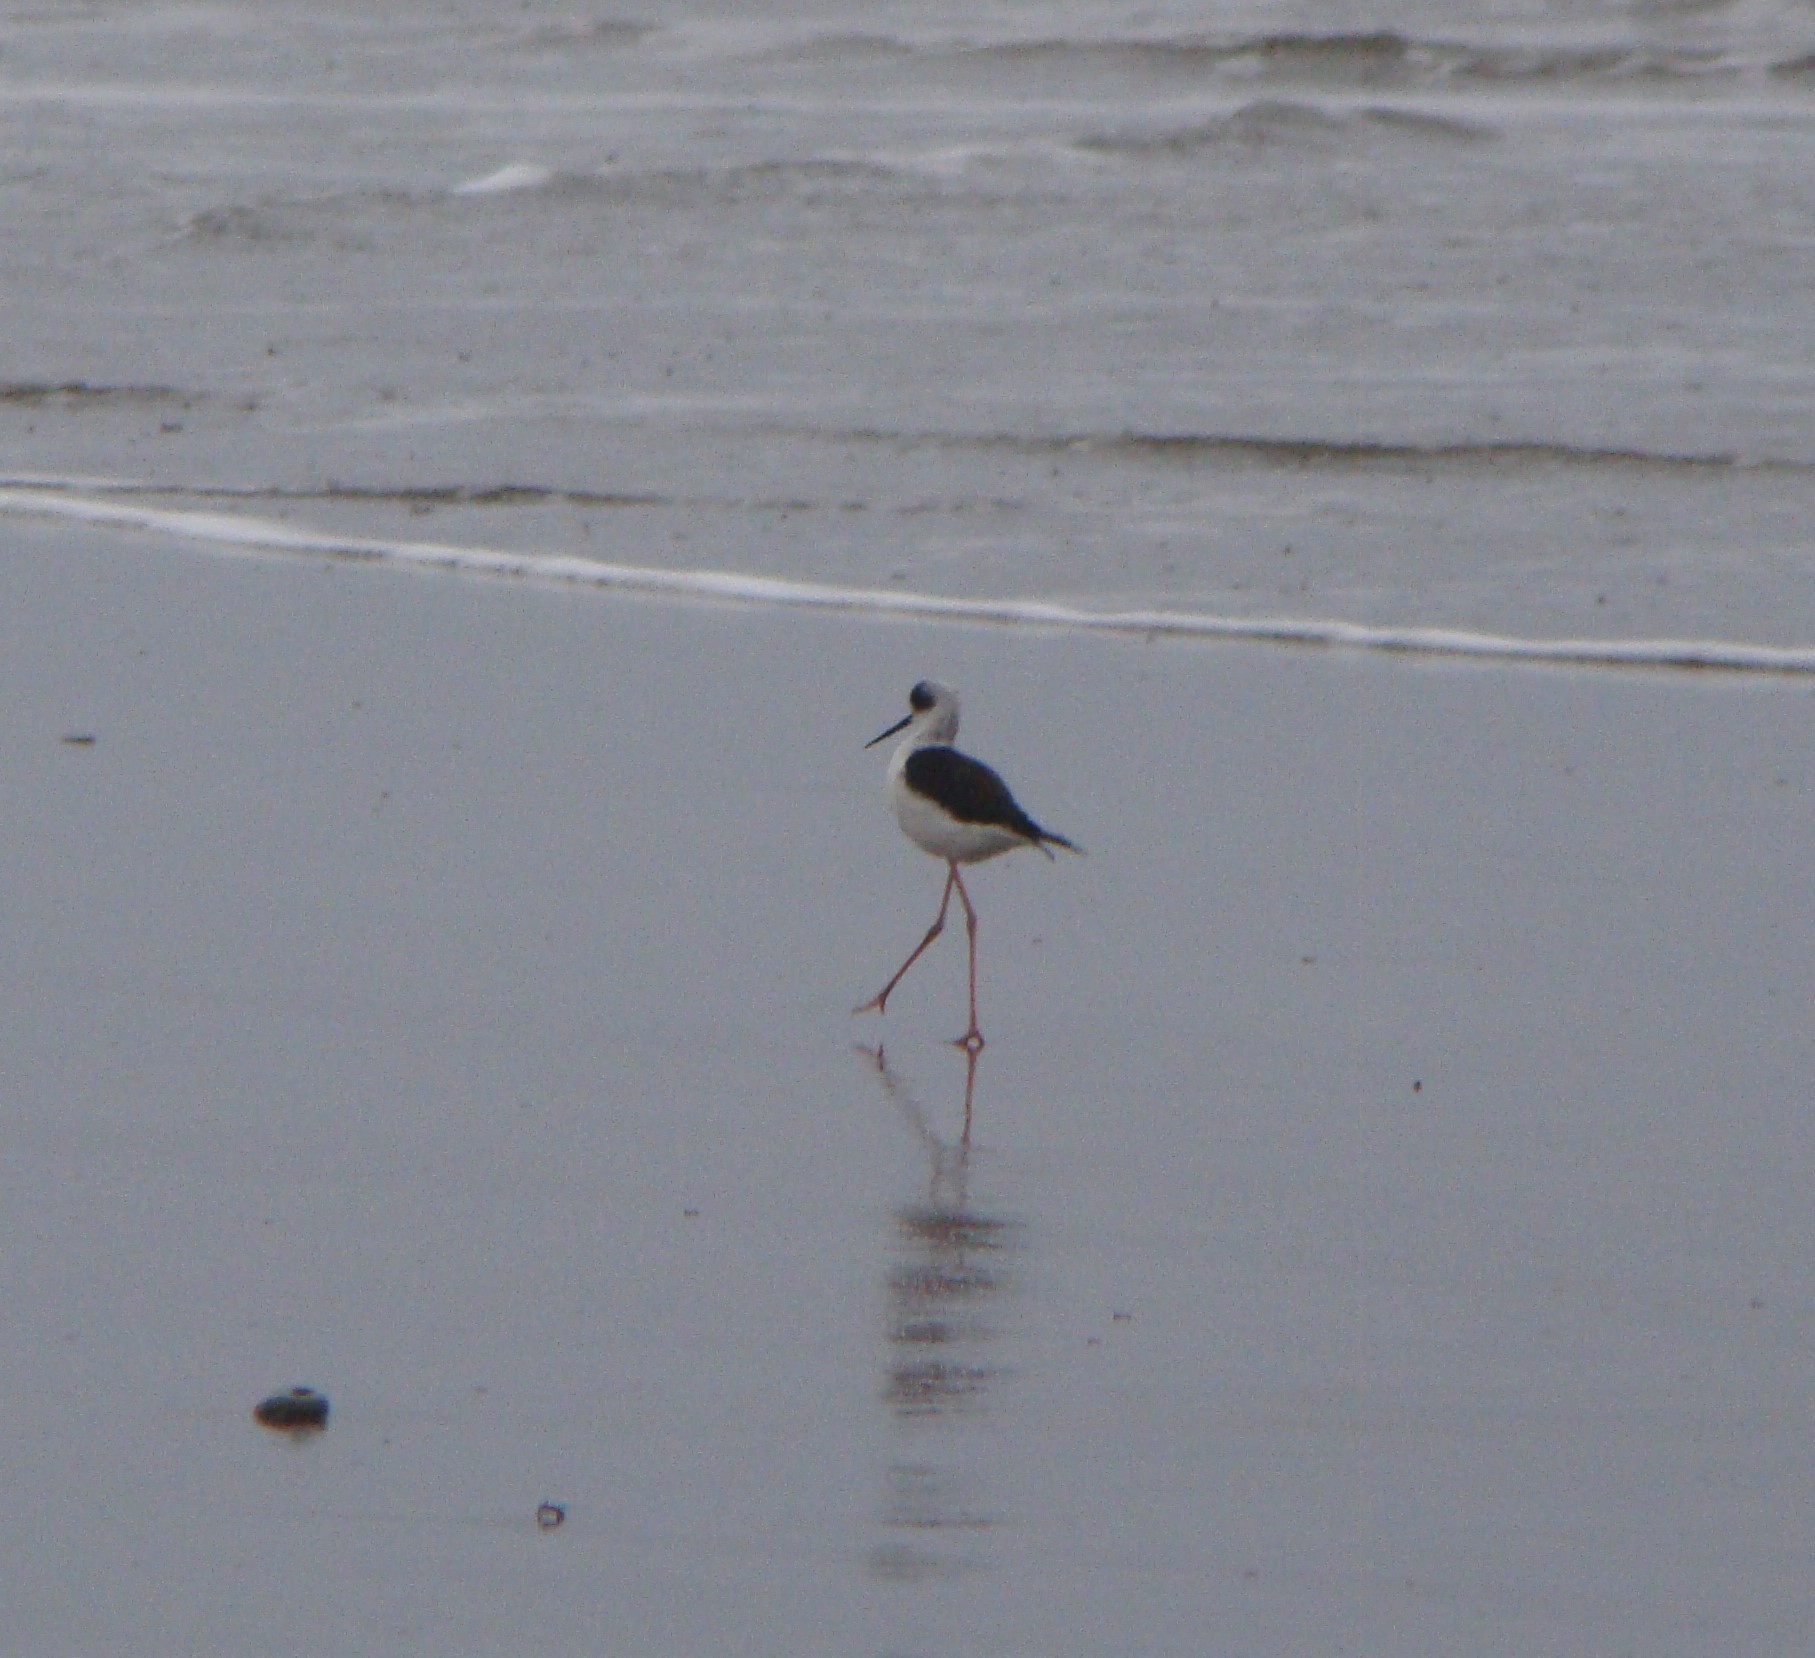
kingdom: Animalia
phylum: Chordata
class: Aves
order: Charadriiformes
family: Recurvirostridae
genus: Himantopus
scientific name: Himantopus leucocephalus
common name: White-headed stilt
